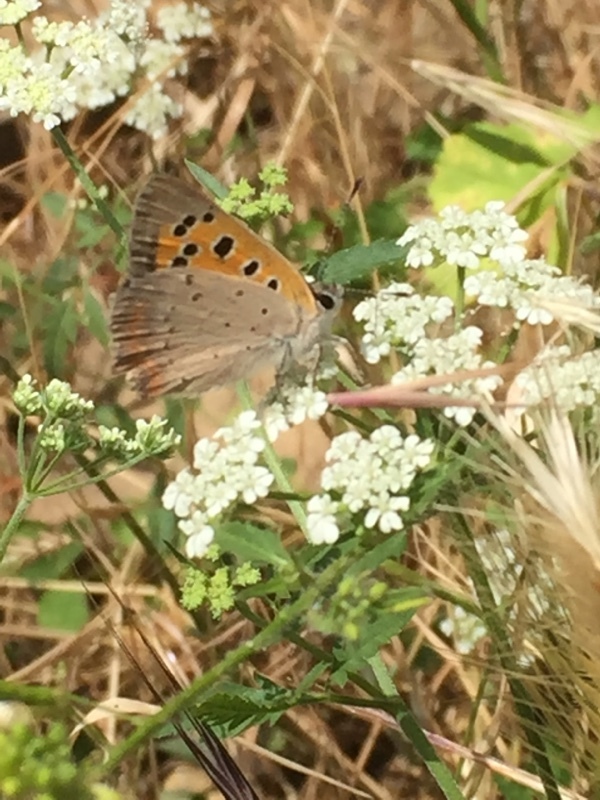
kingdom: Animalia
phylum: Arthropoda
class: Insecta
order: Lepidoptera
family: Lycaenidae
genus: Lycaena
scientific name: Lycaena phlaeas
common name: Small copper
